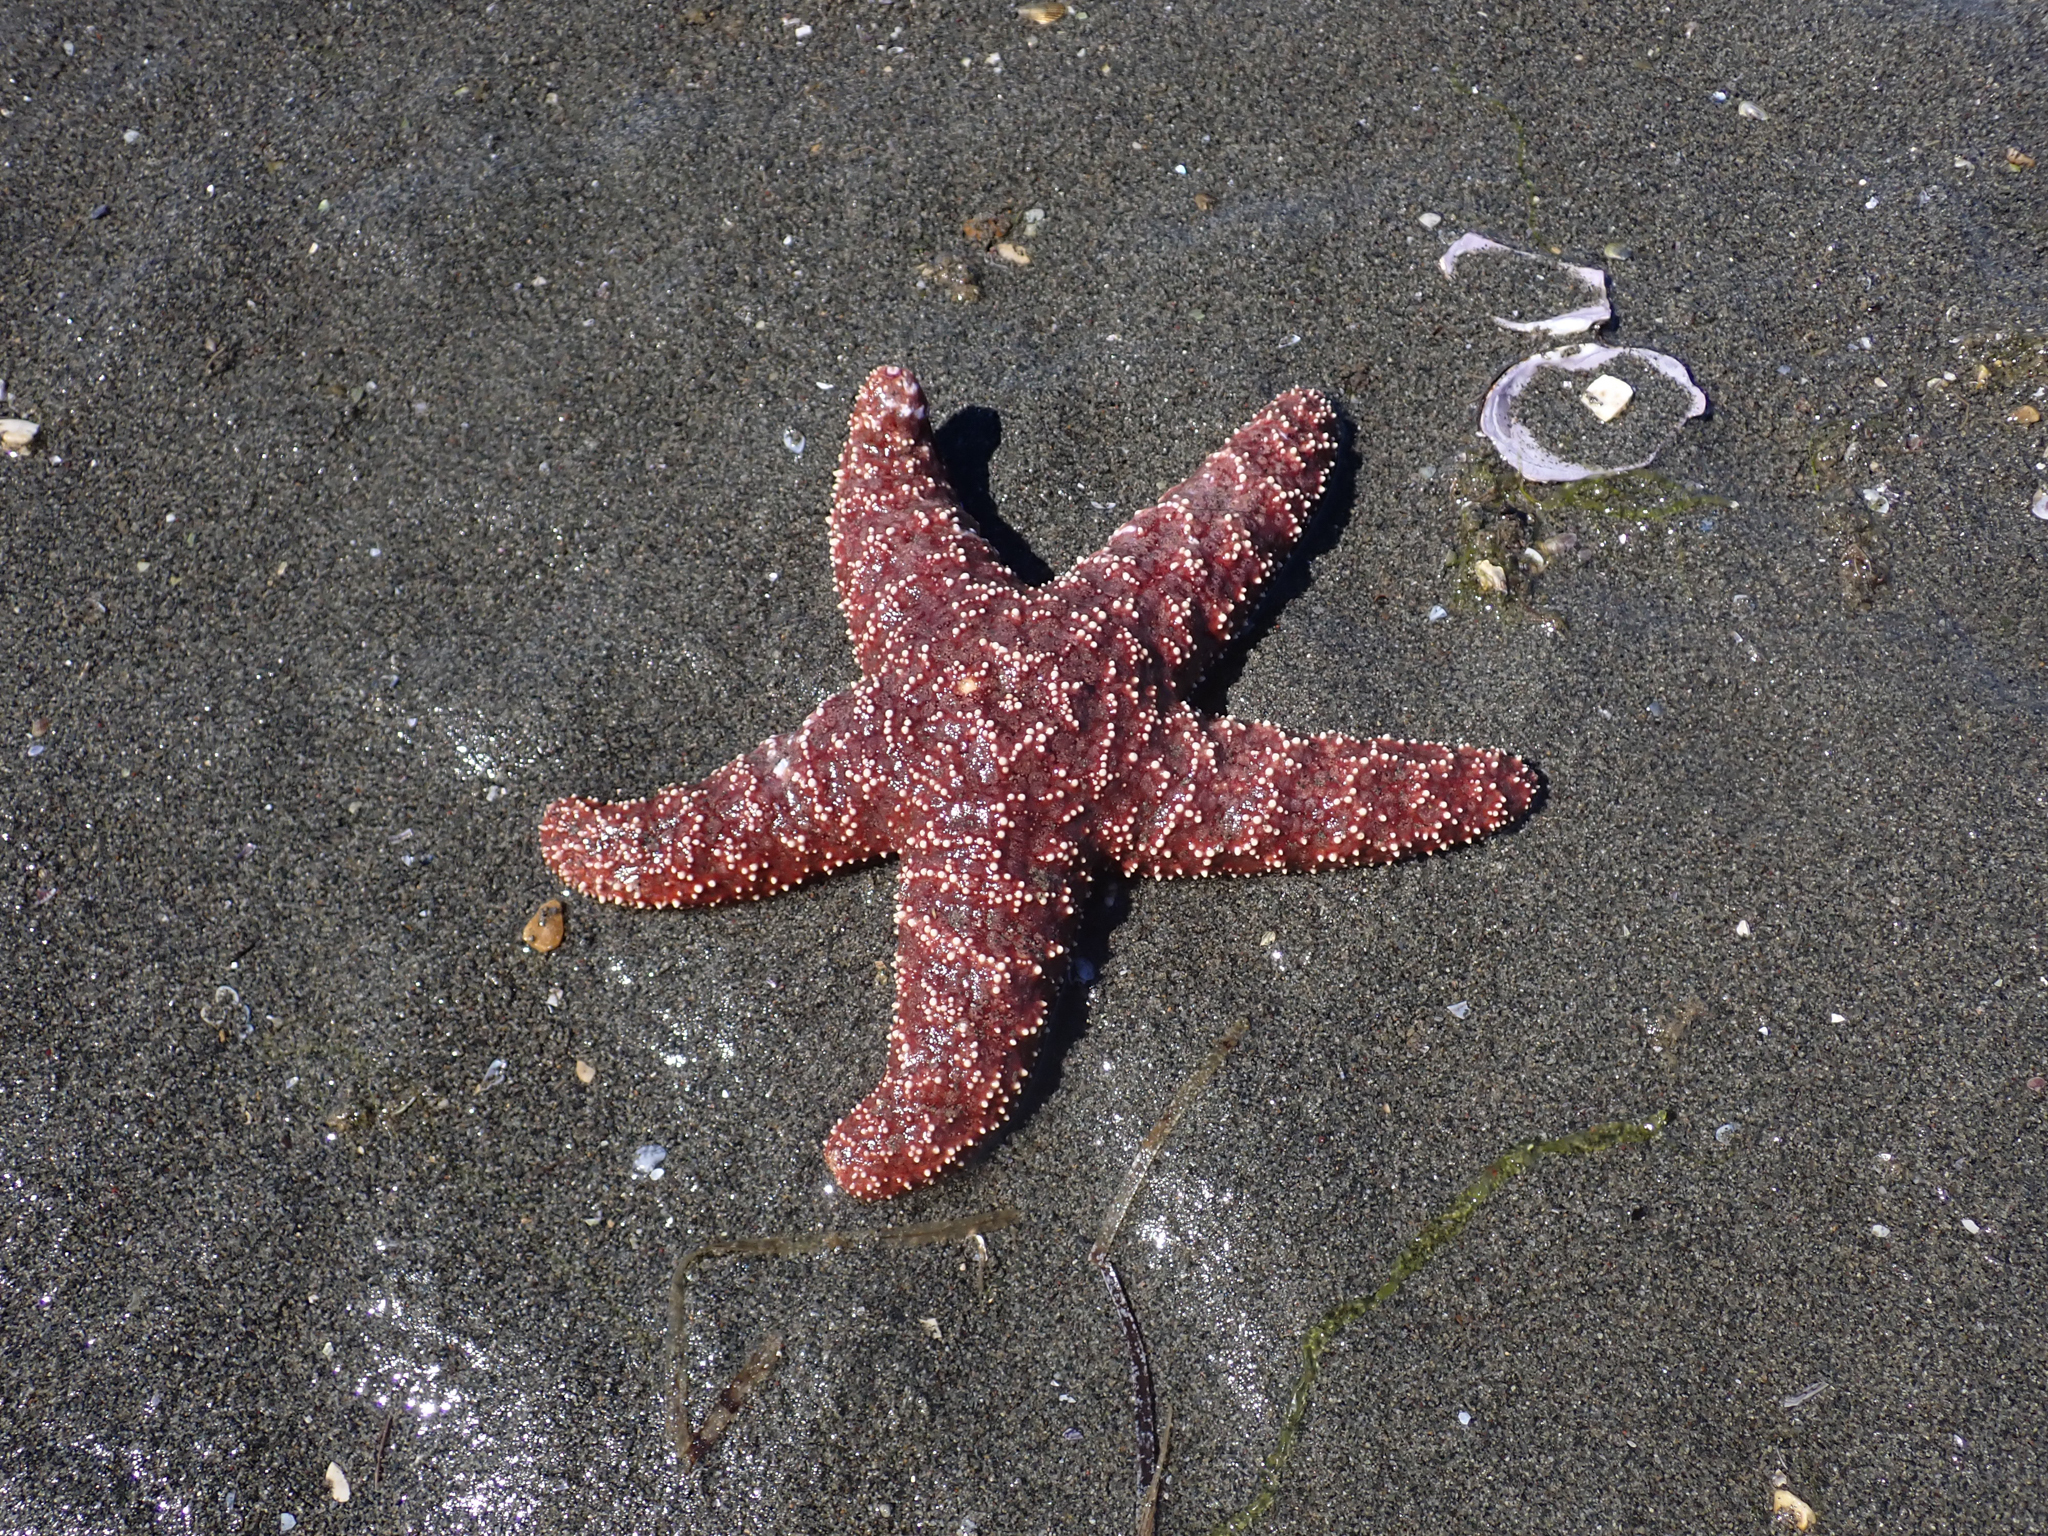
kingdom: Animalia
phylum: Echinodermata
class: Asteroidea
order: Forcipulatida
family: Asteriidae
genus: Pisaster
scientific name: Pisaster ochraceus
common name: Ochre stars
